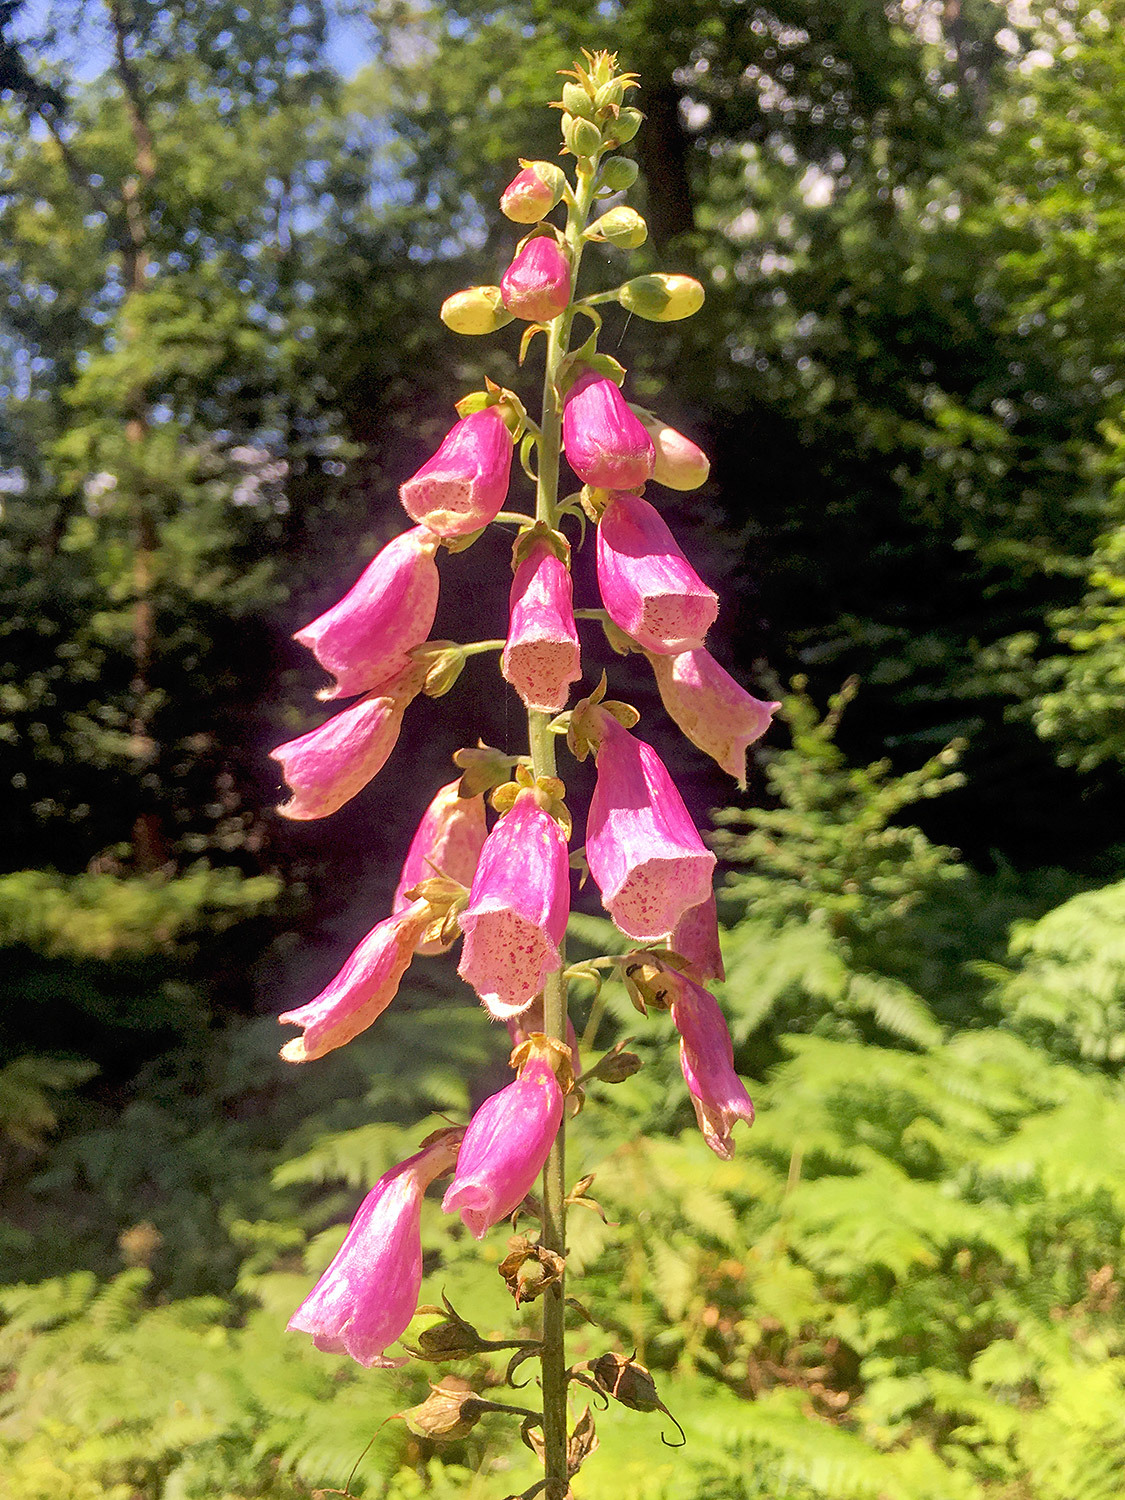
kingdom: Plantae
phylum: Tracheophyta
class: Magnoliopsida
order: Lamiales
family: Plantaginaceae
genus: Digitalis
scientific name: Digitalis purpurea
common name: Foxglove
